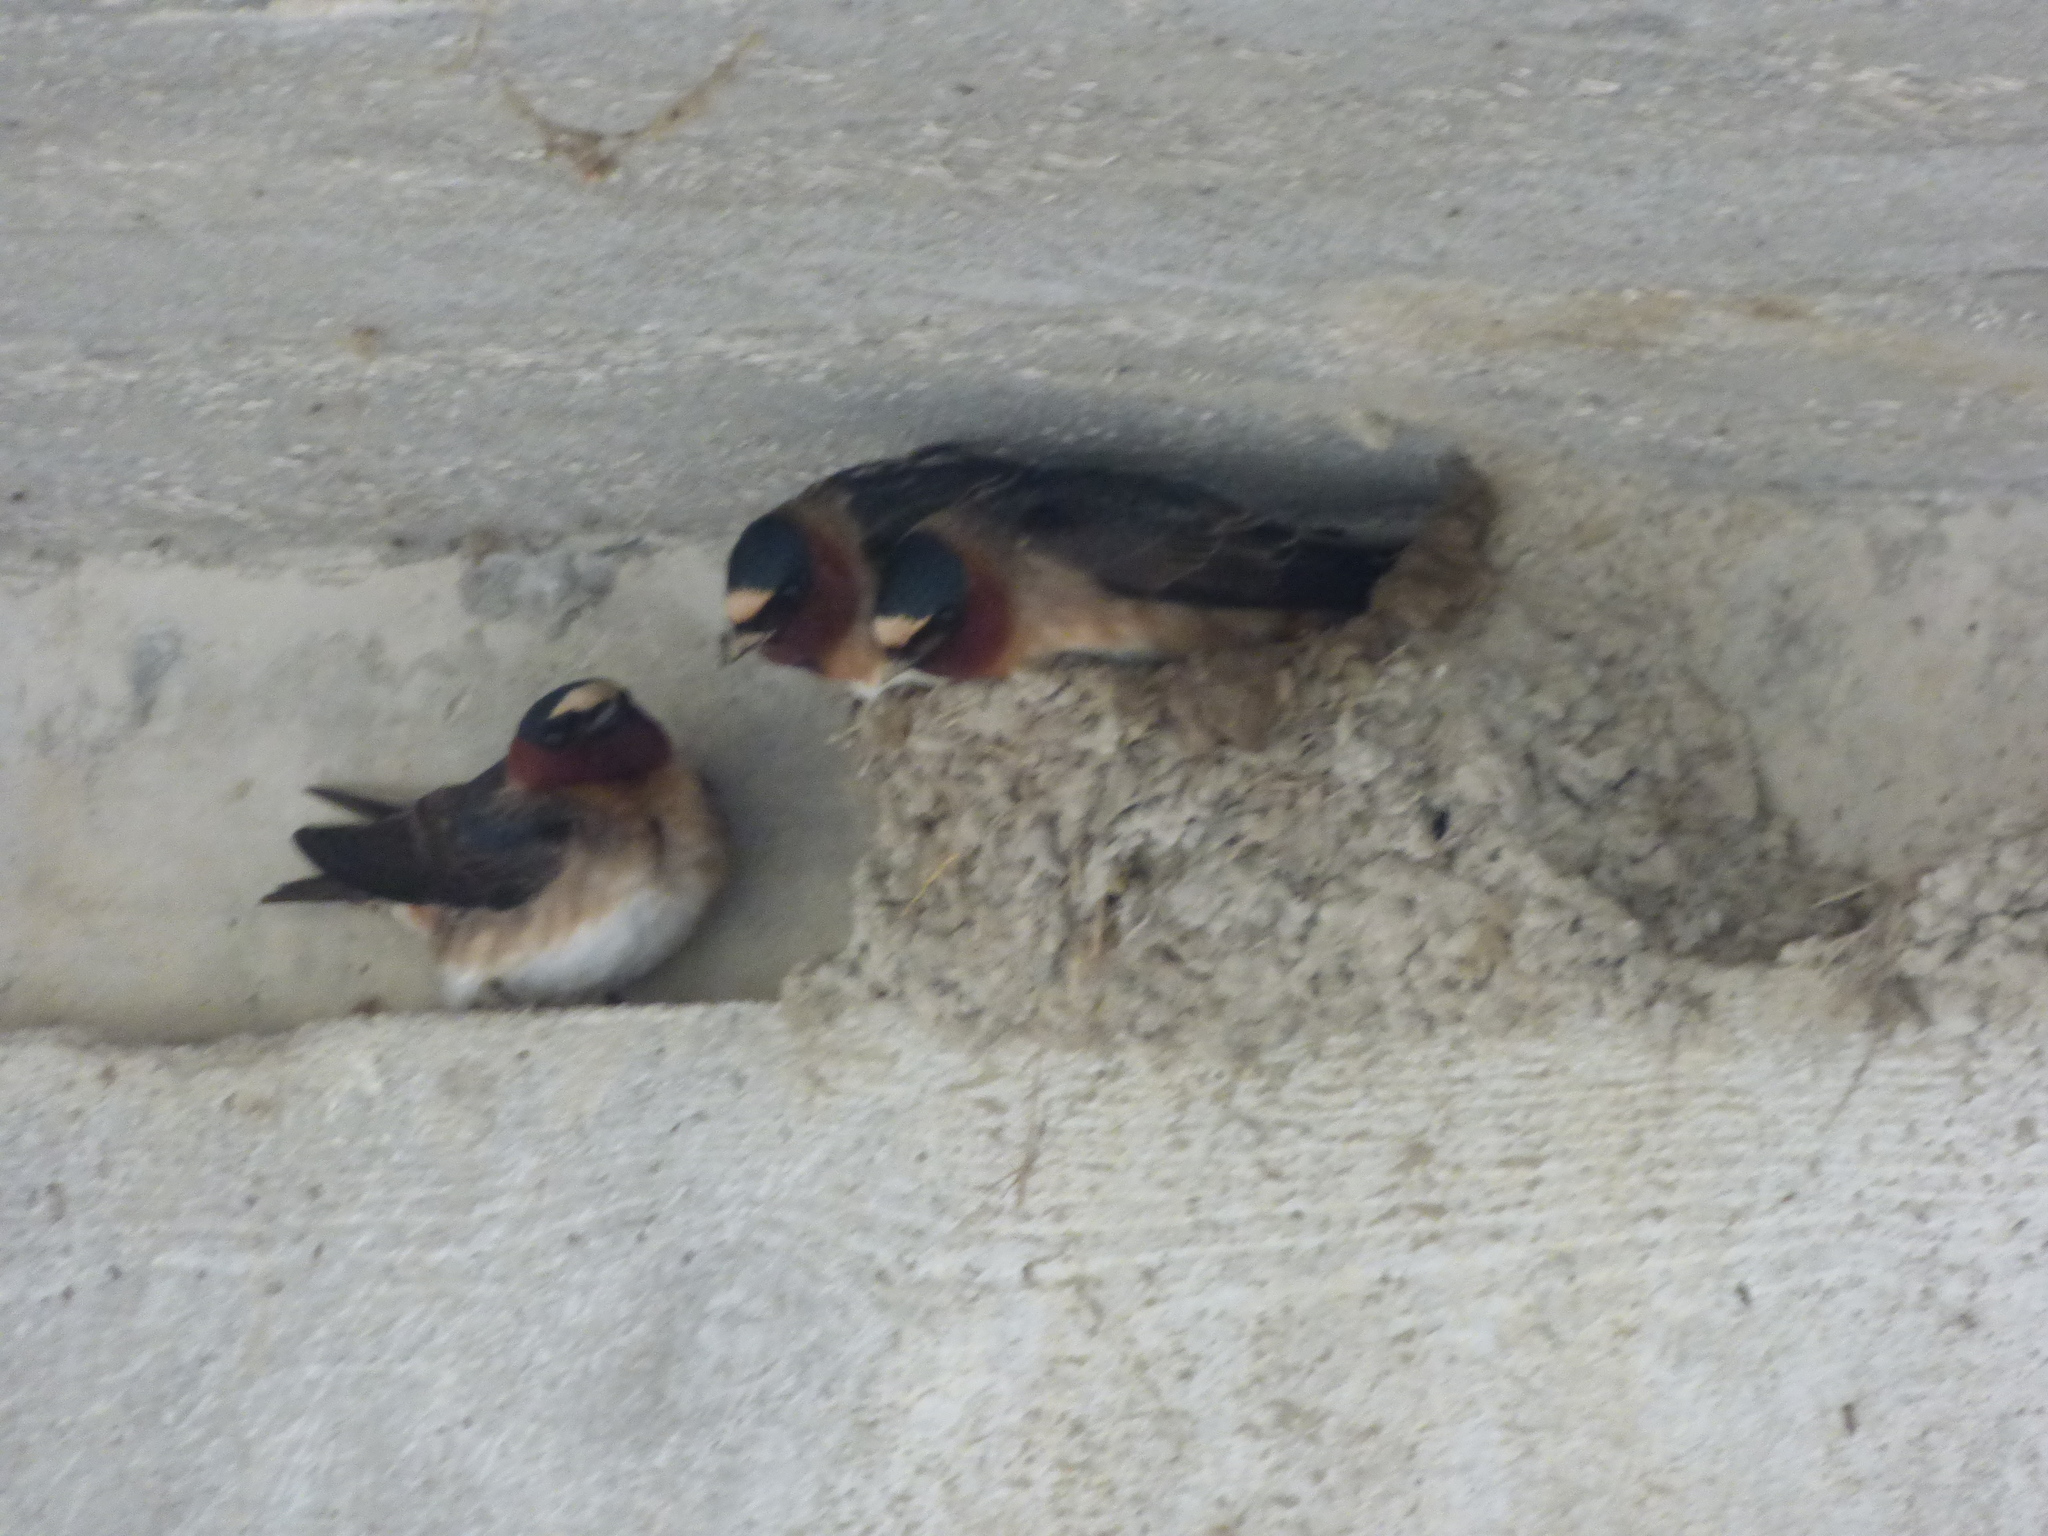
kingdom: Animalia
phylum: Chordata
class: Aves
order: Passeriformes
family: Hirundinidae
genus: Petrochelidon
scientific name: Petrochelidon pyrrhonota
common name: American cliff swallow
